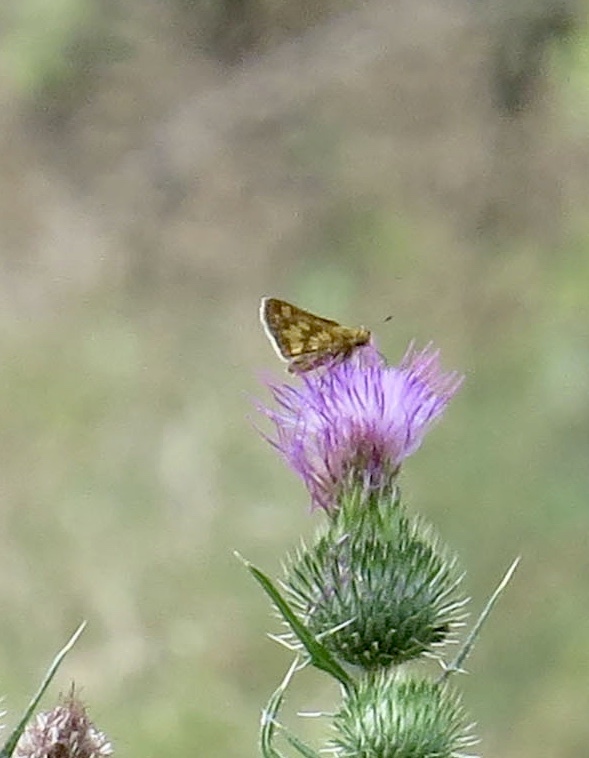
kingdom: Animalia
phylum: Arthropoda
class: Insecta
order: Lepidoptera
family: Hesperiidae
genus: Polites
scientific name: Polites coras
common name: Peck's skipper
